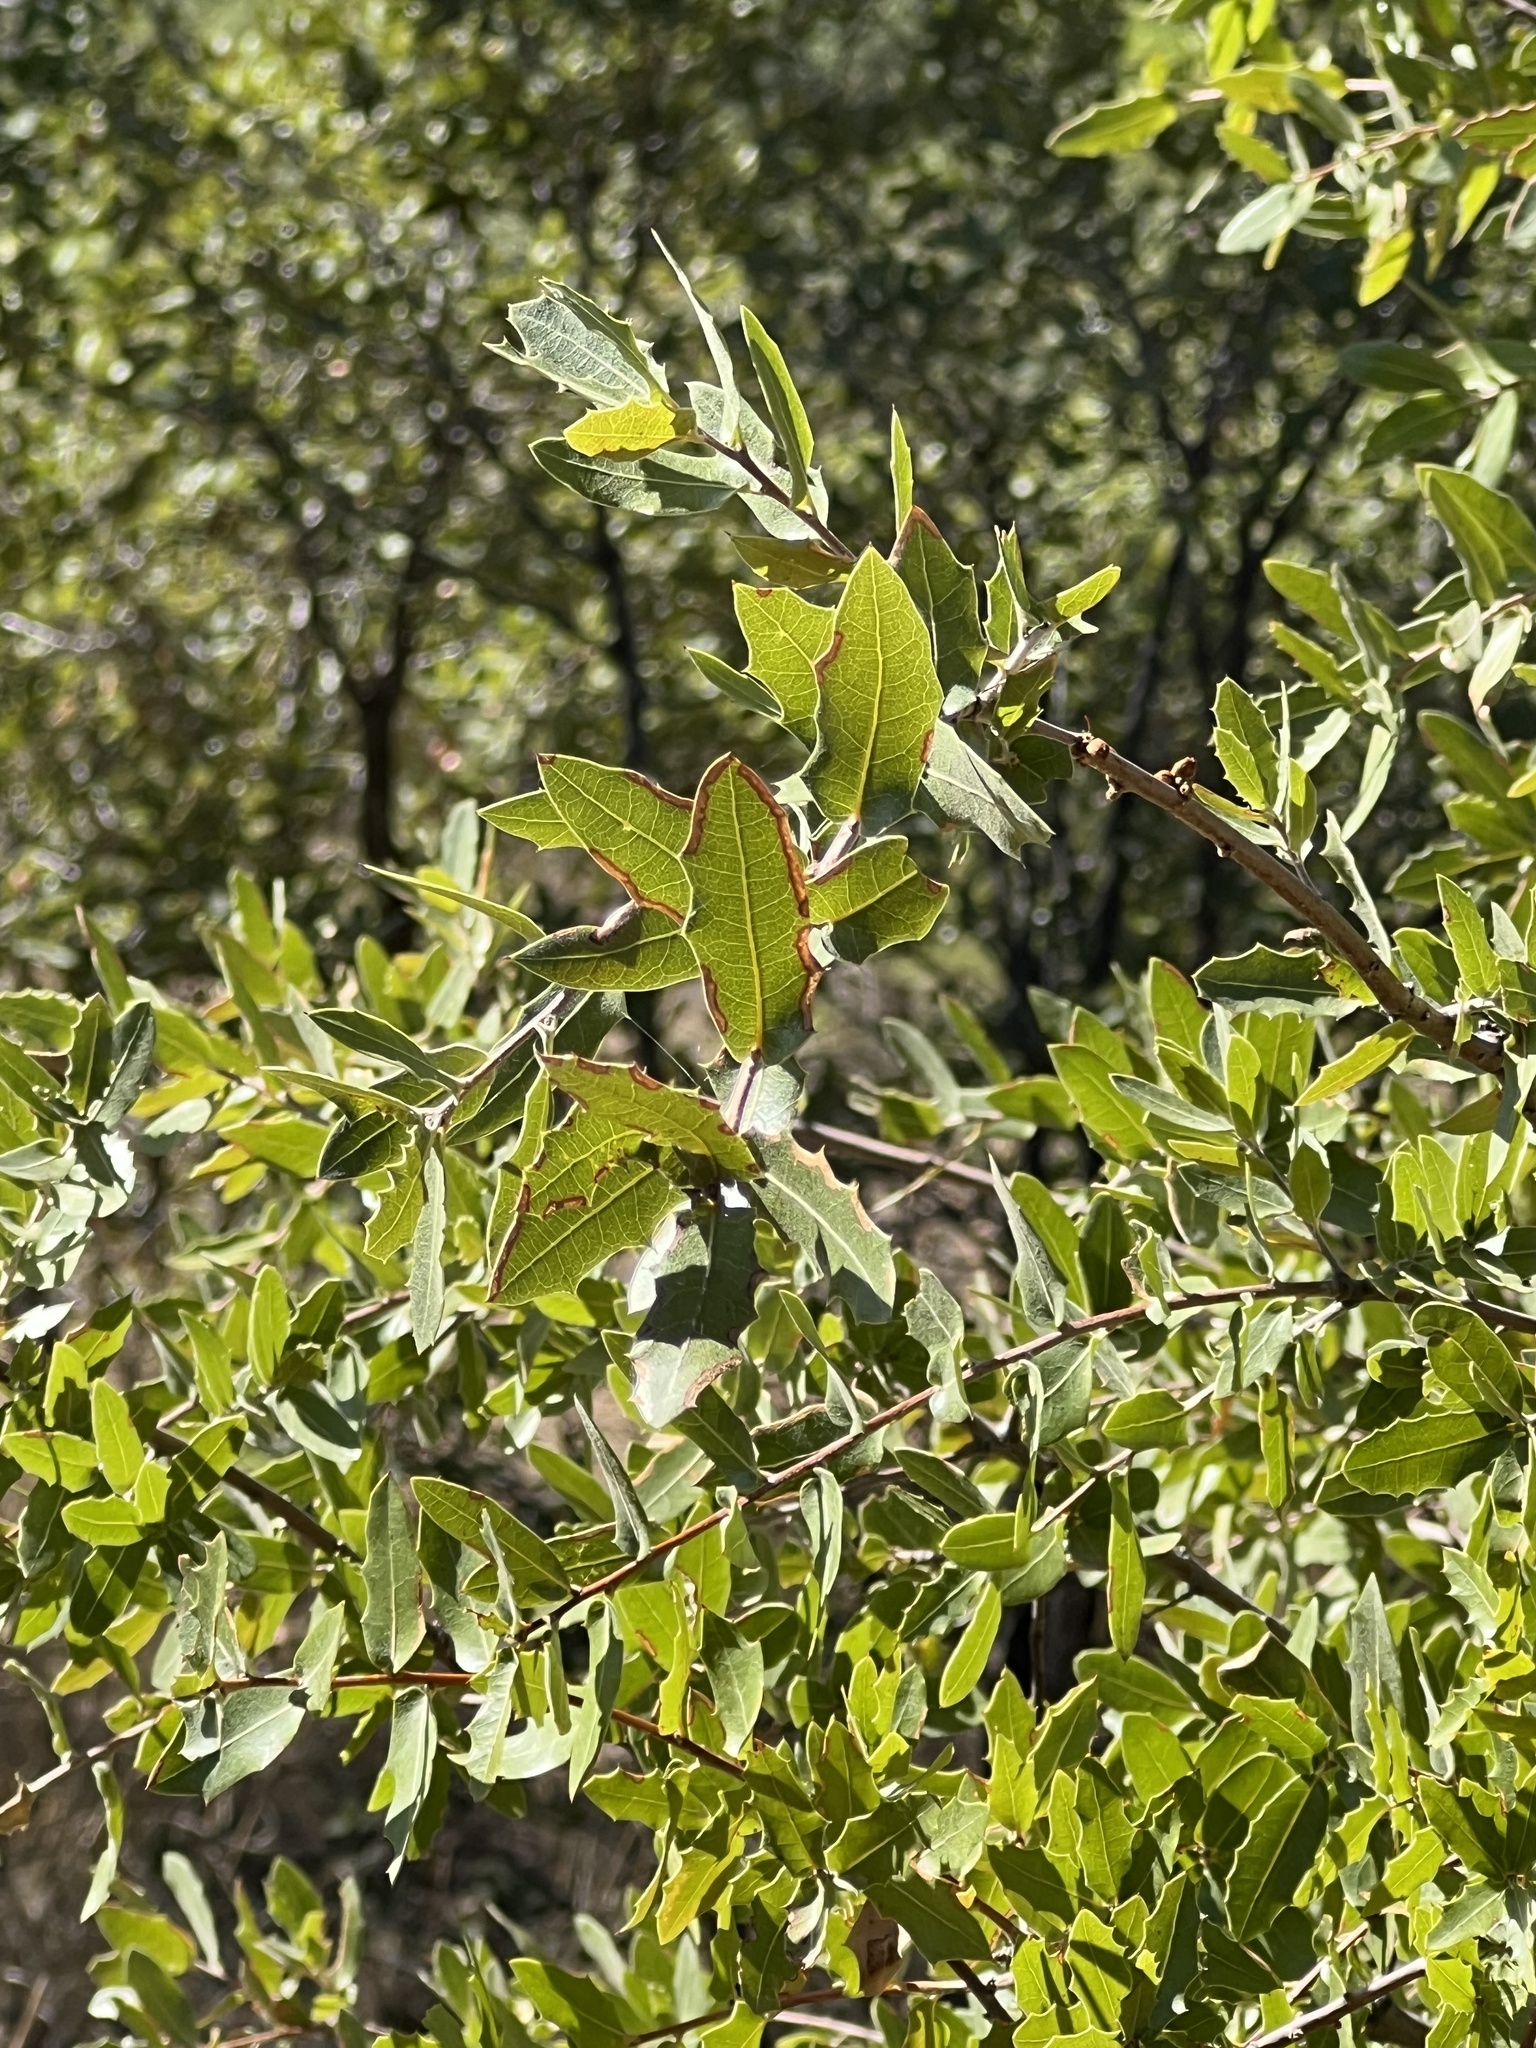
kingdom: Plantae
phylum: Tracheophyta
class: Magnoliopsida
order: Fagales
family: Fagaceae
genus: Quercus
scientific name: Quercus emoryi
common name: Emory oak
